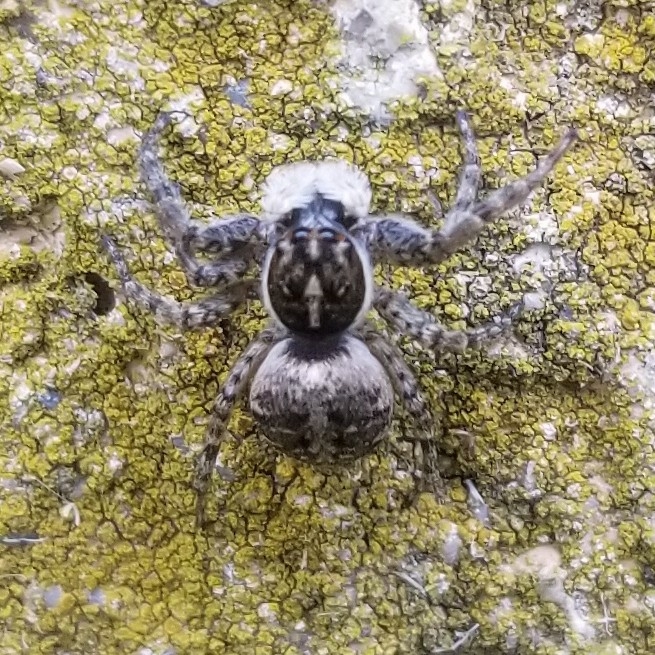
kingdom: Animalia
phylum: Arthropoda
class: Arachnida
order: Araneae
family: Salticidae
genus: Menemerus
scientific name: Menemerus semilimbatus
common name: Jumping spider
